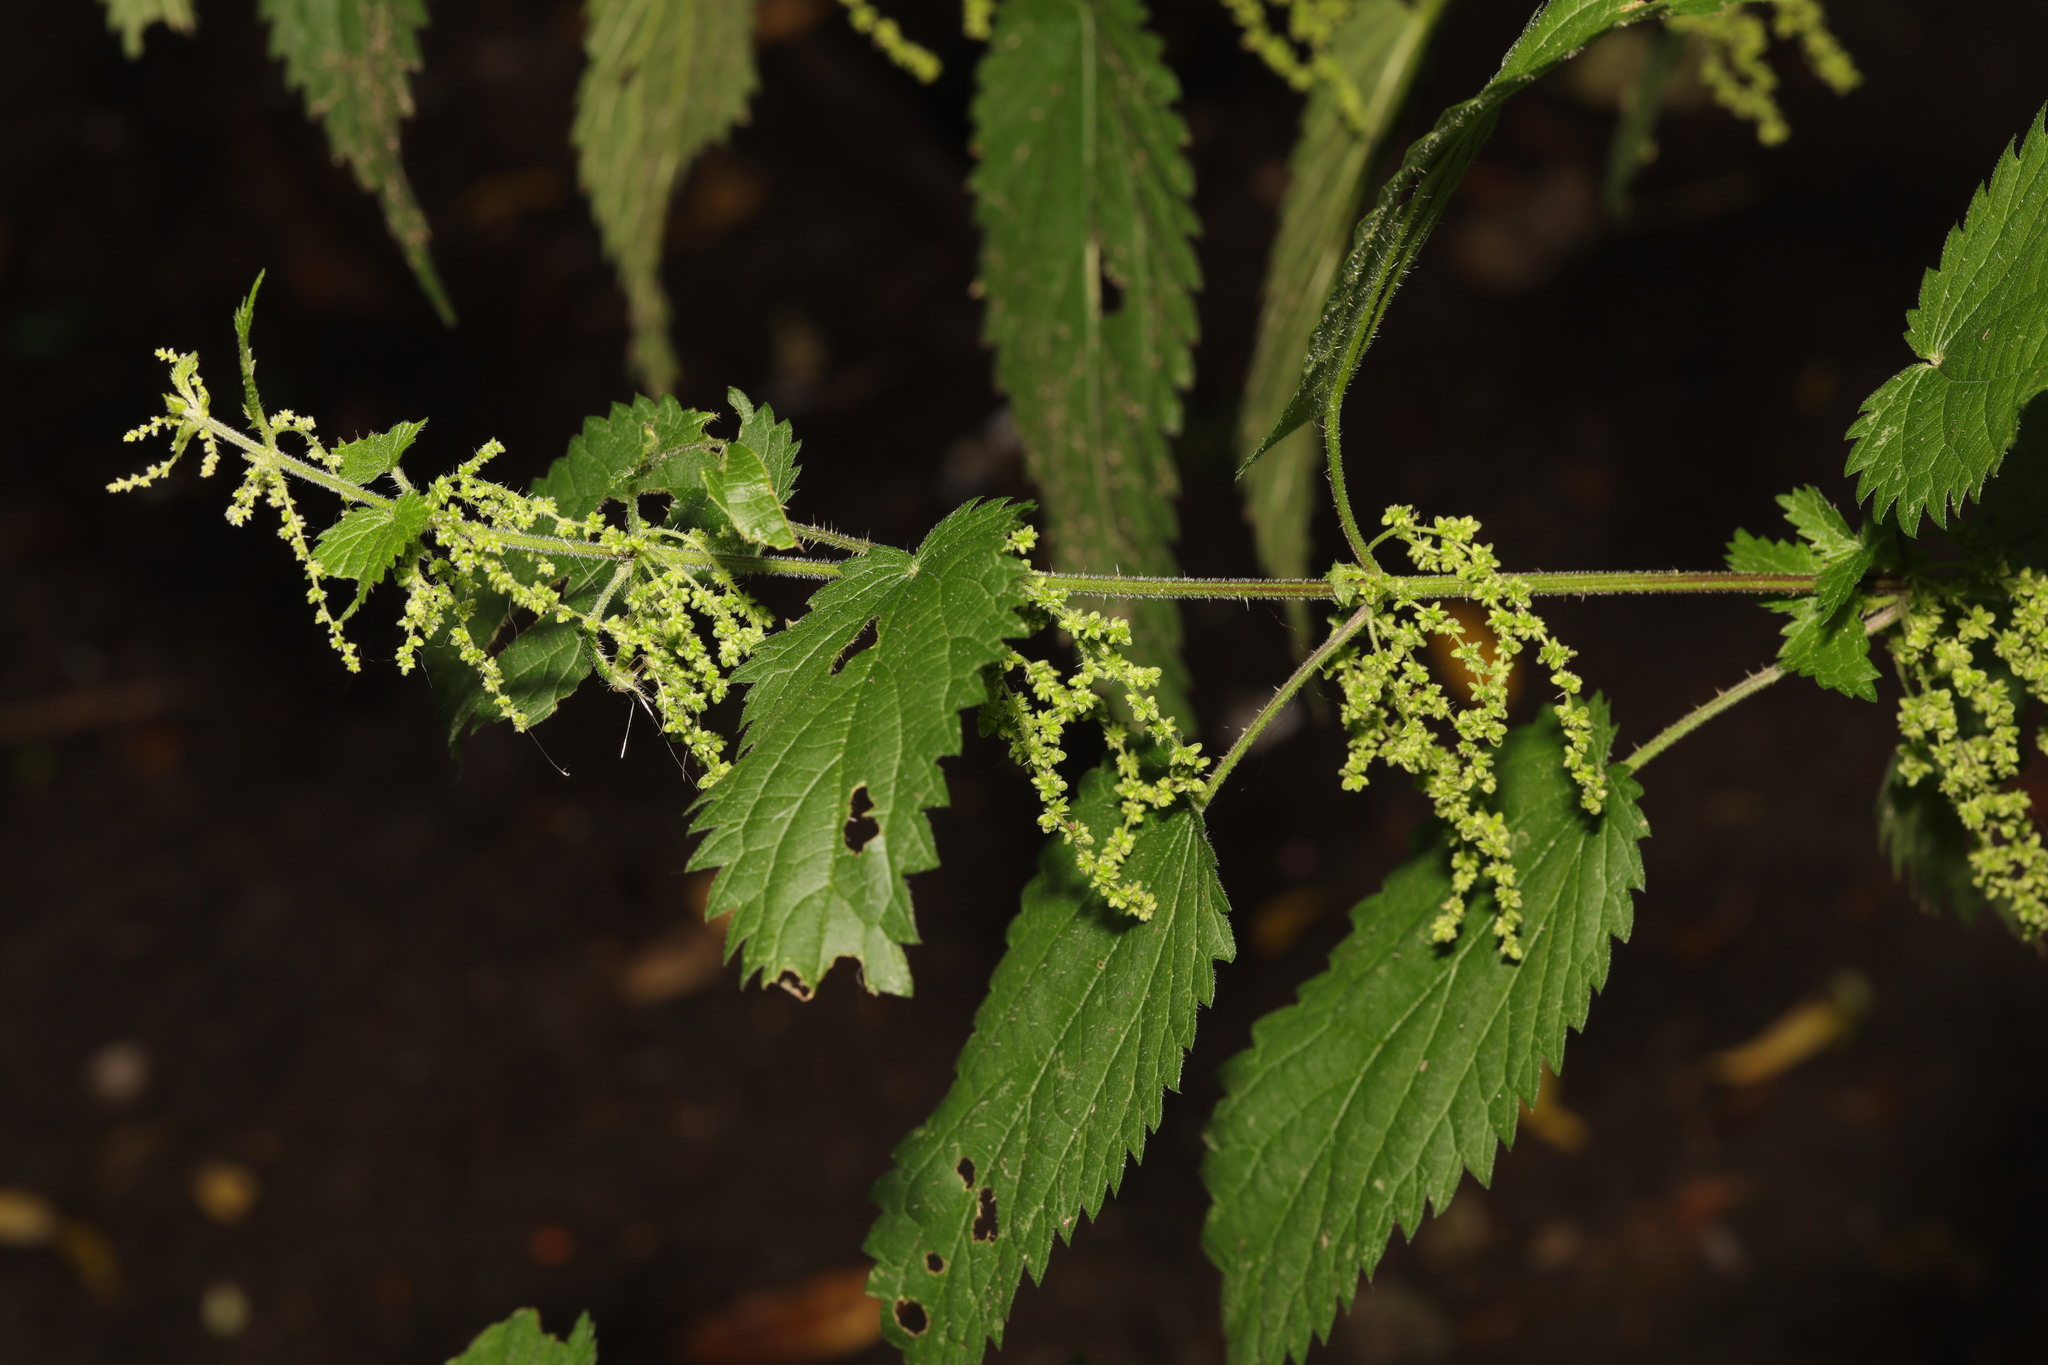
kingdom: Plantae
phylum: Tracheophyta
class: Magnoliopsida
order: Rosales
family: Urticaceae
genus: Urtica
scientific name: Urtica dioica
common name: Common nettle
